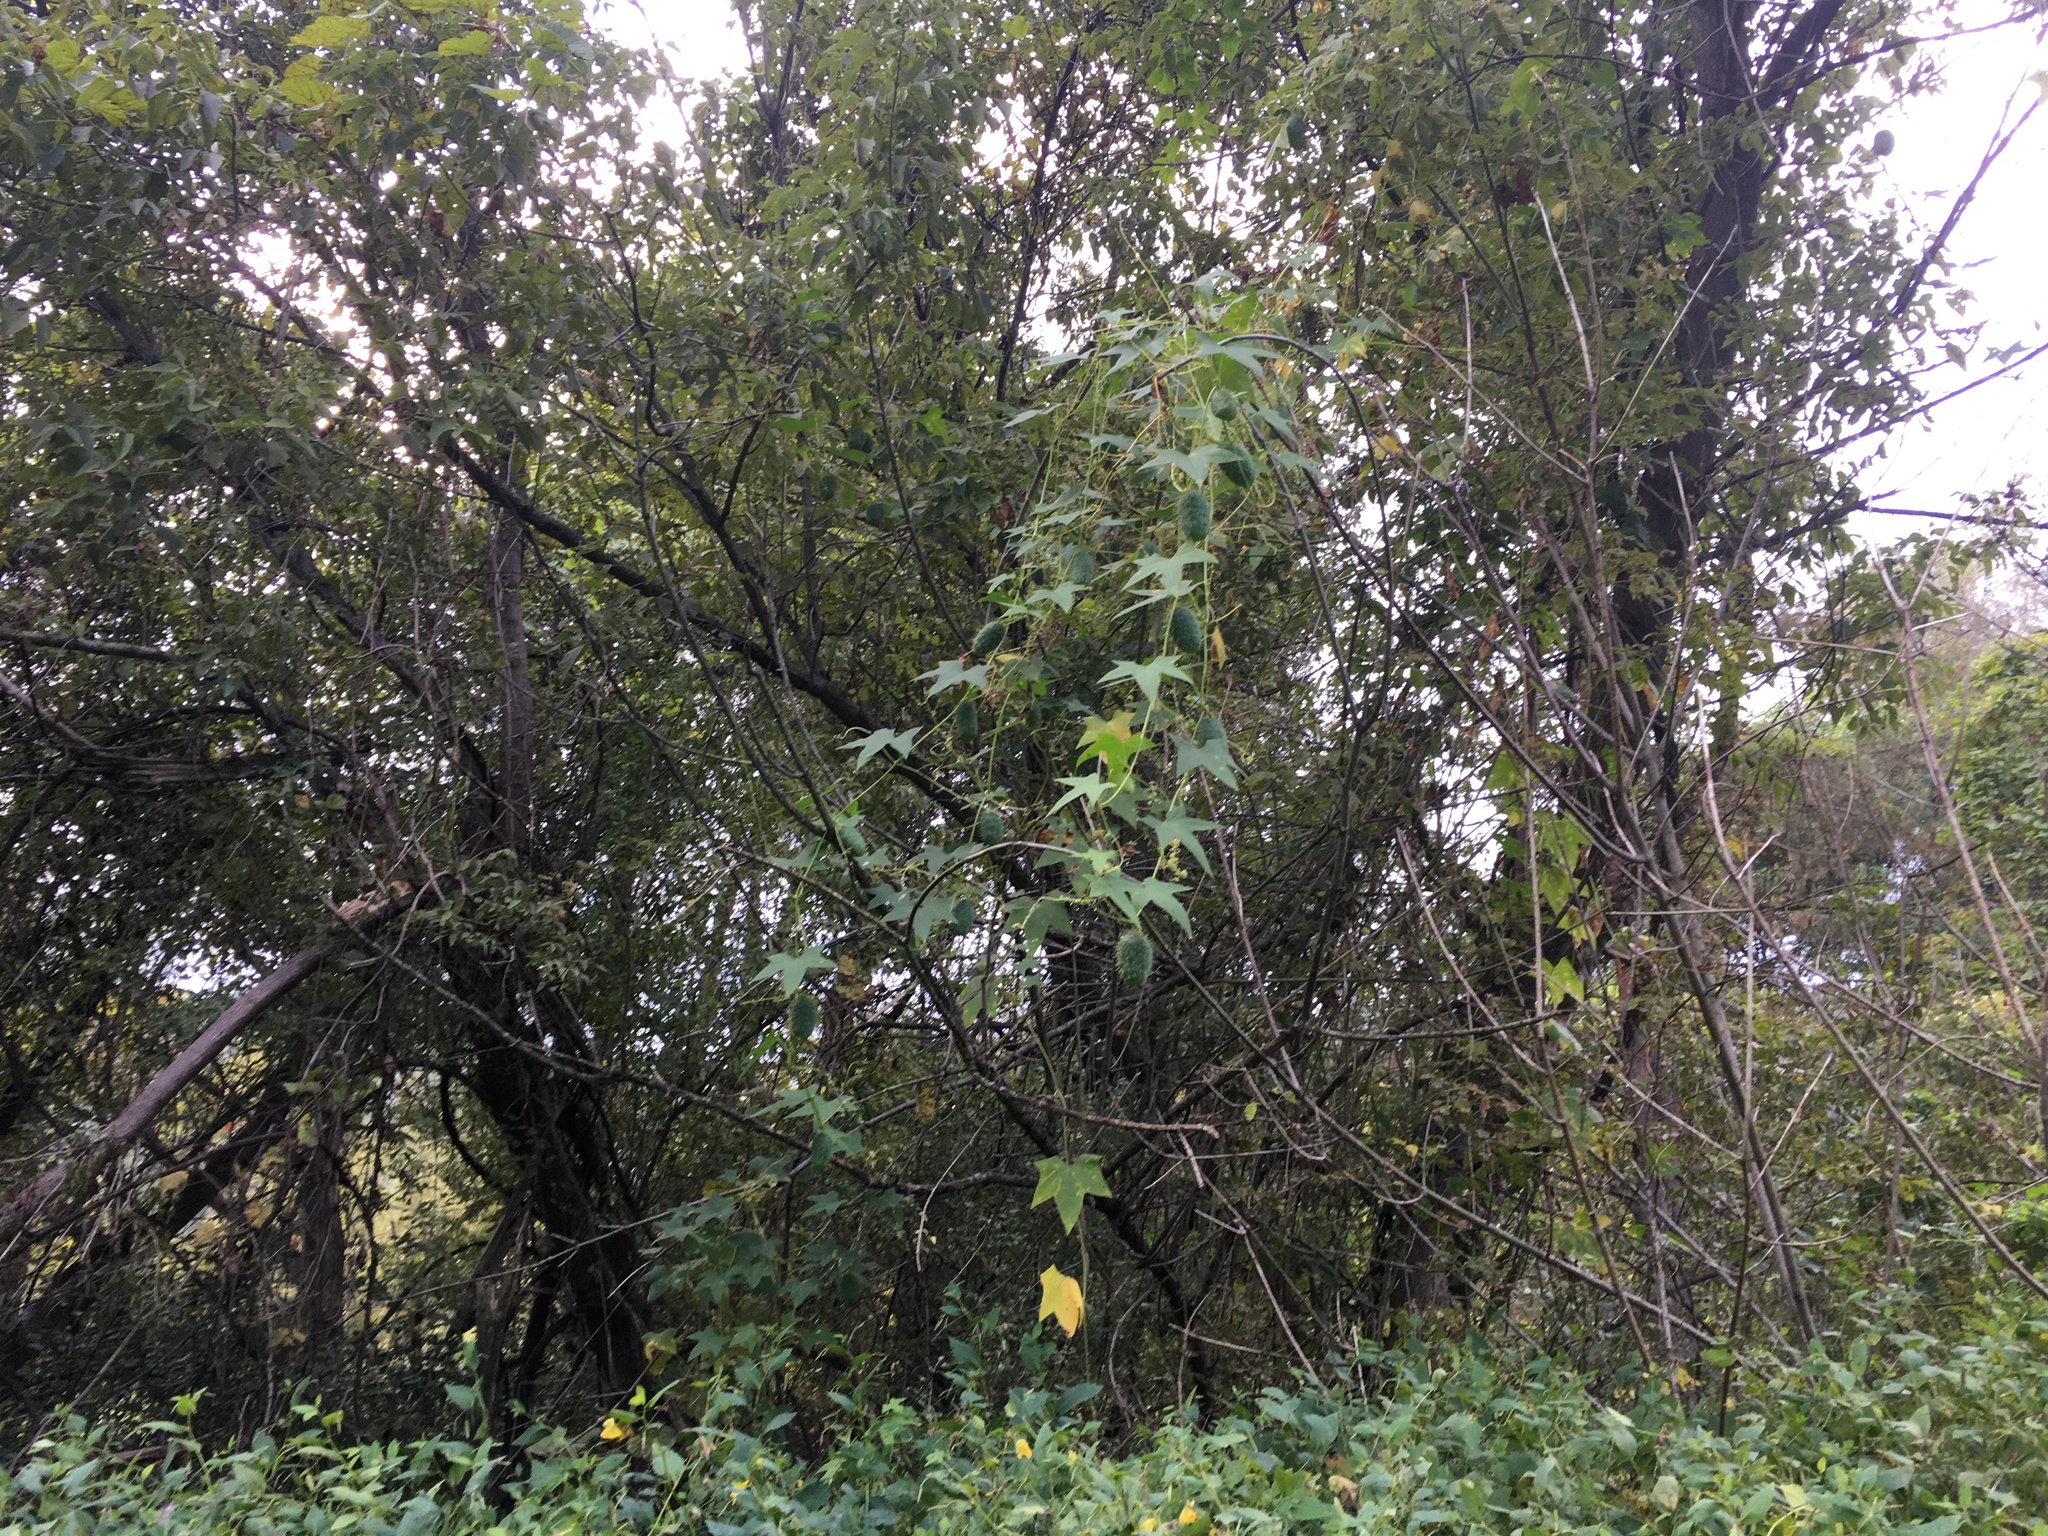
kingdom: Plantae
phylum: Tracheophyta
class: Magnoliopsida
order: Cucurbitales
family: Cucurbitaceae
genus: Echinocystis
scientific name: Echinocystis lobata
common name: Wild cucumber
